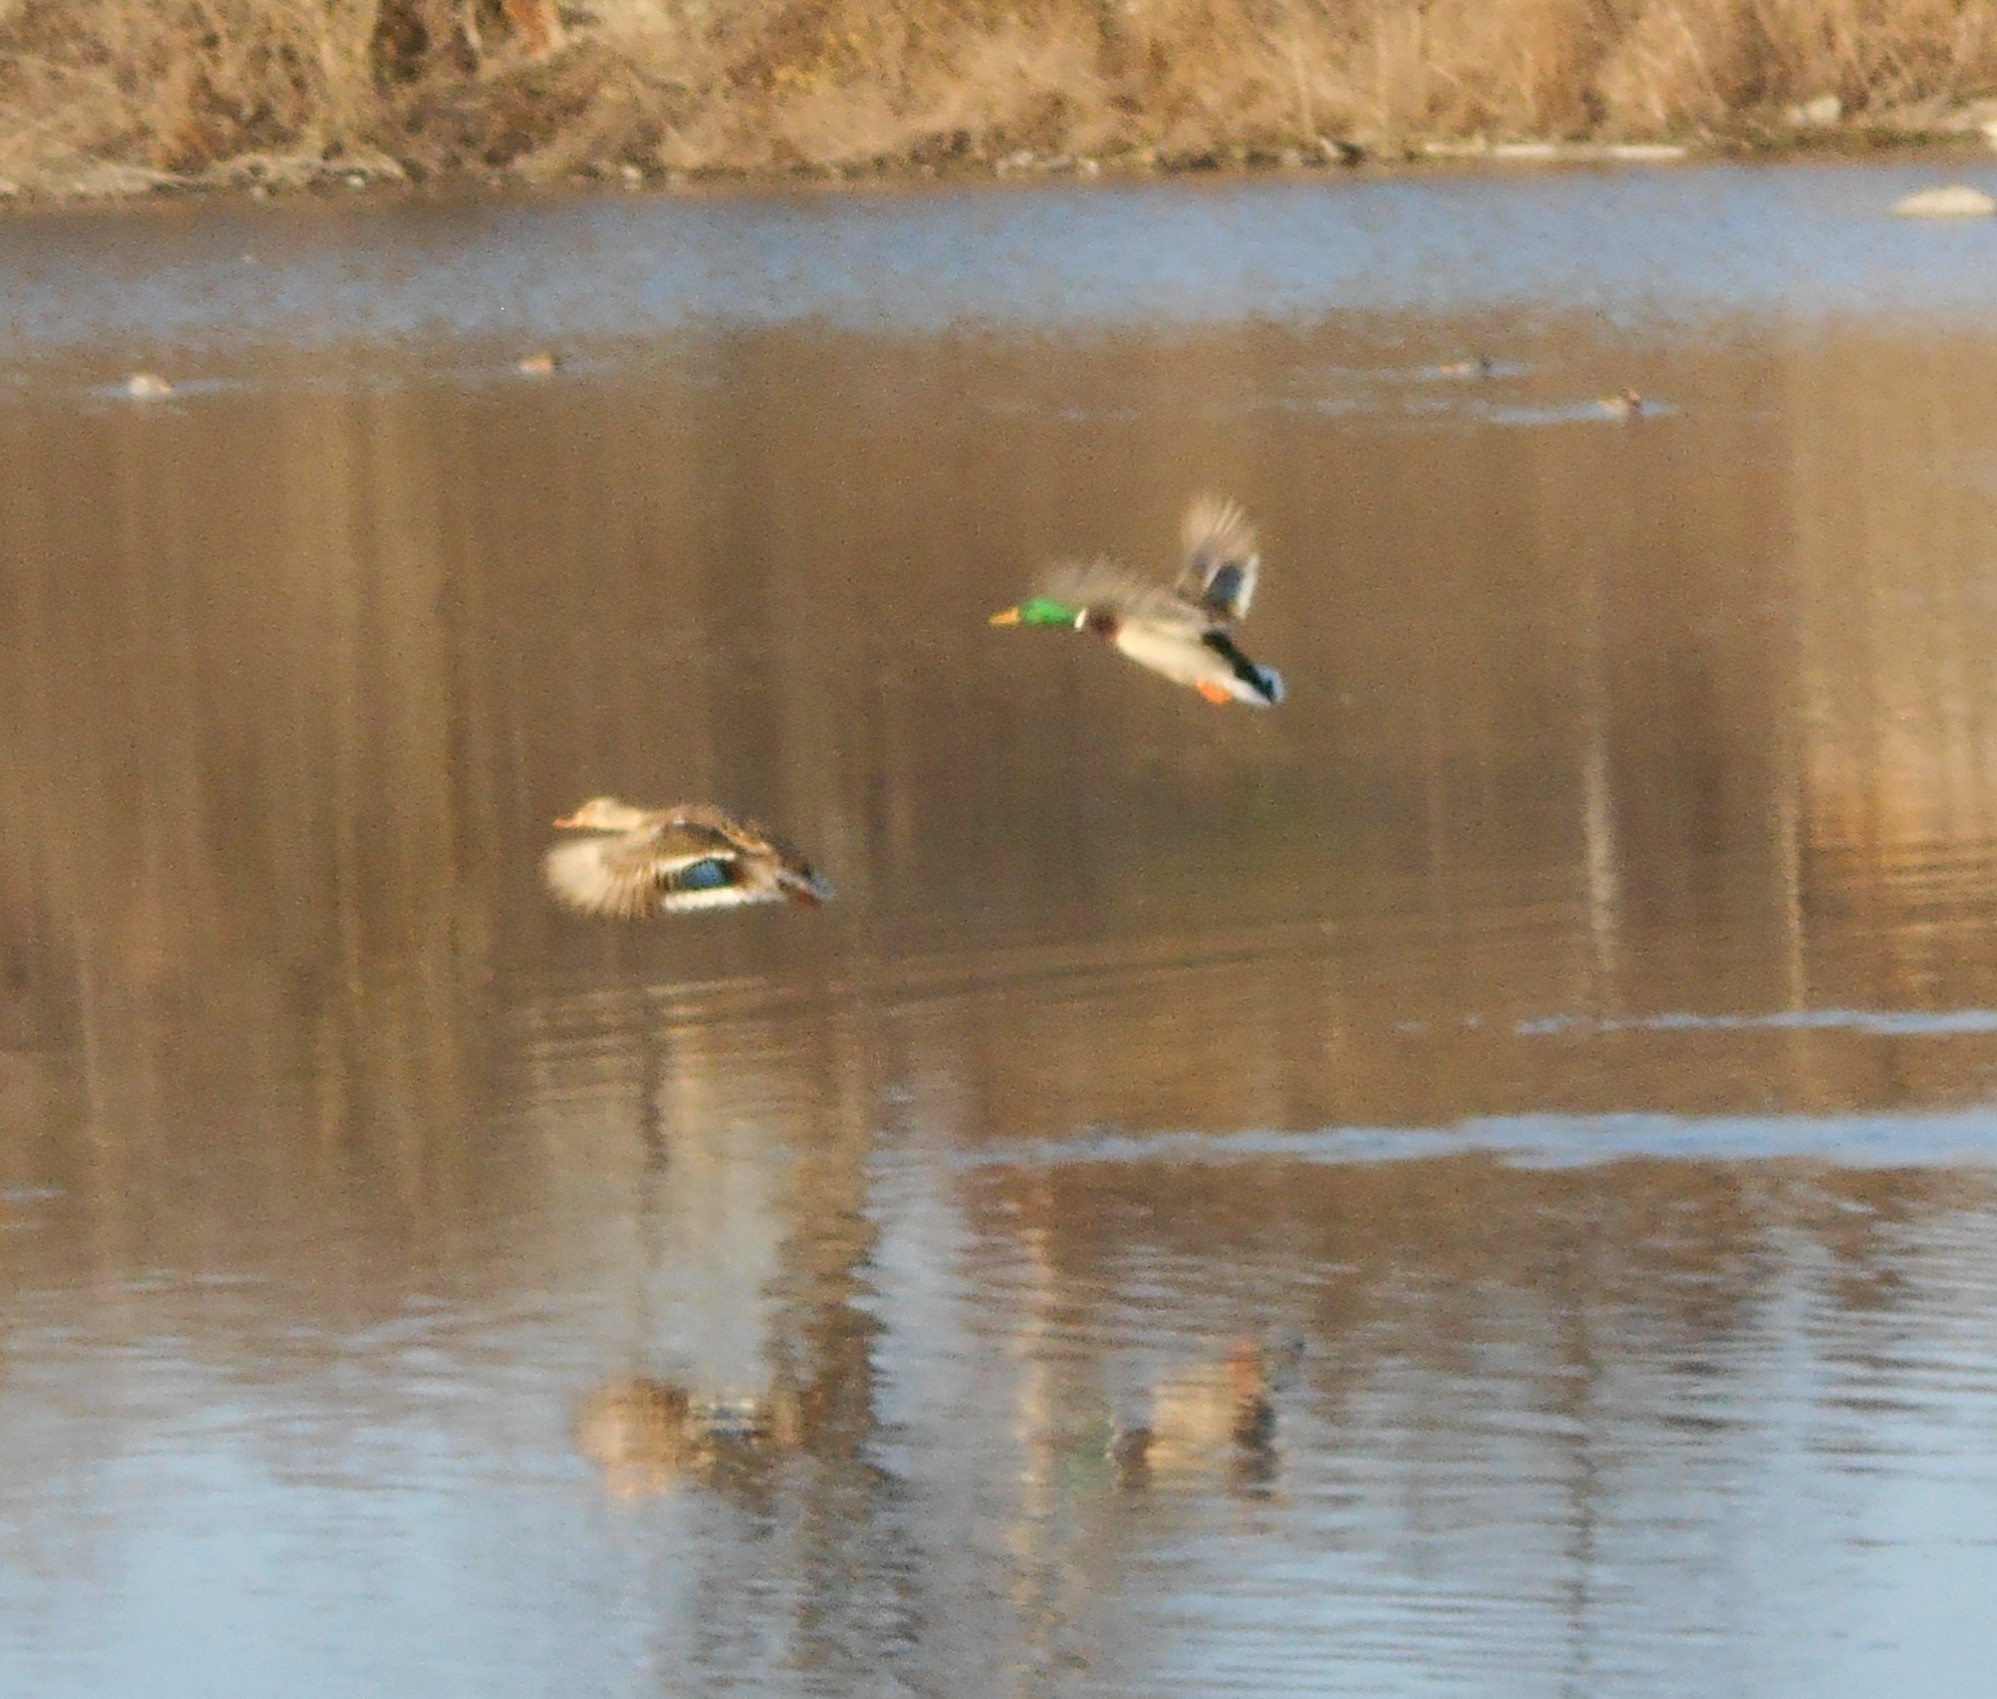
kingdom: Animalia
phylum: Chordata
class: Aves
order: Anseriformes
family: Anatidae
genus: Anas
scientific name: Anas platyrhynchos
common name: Mallard
